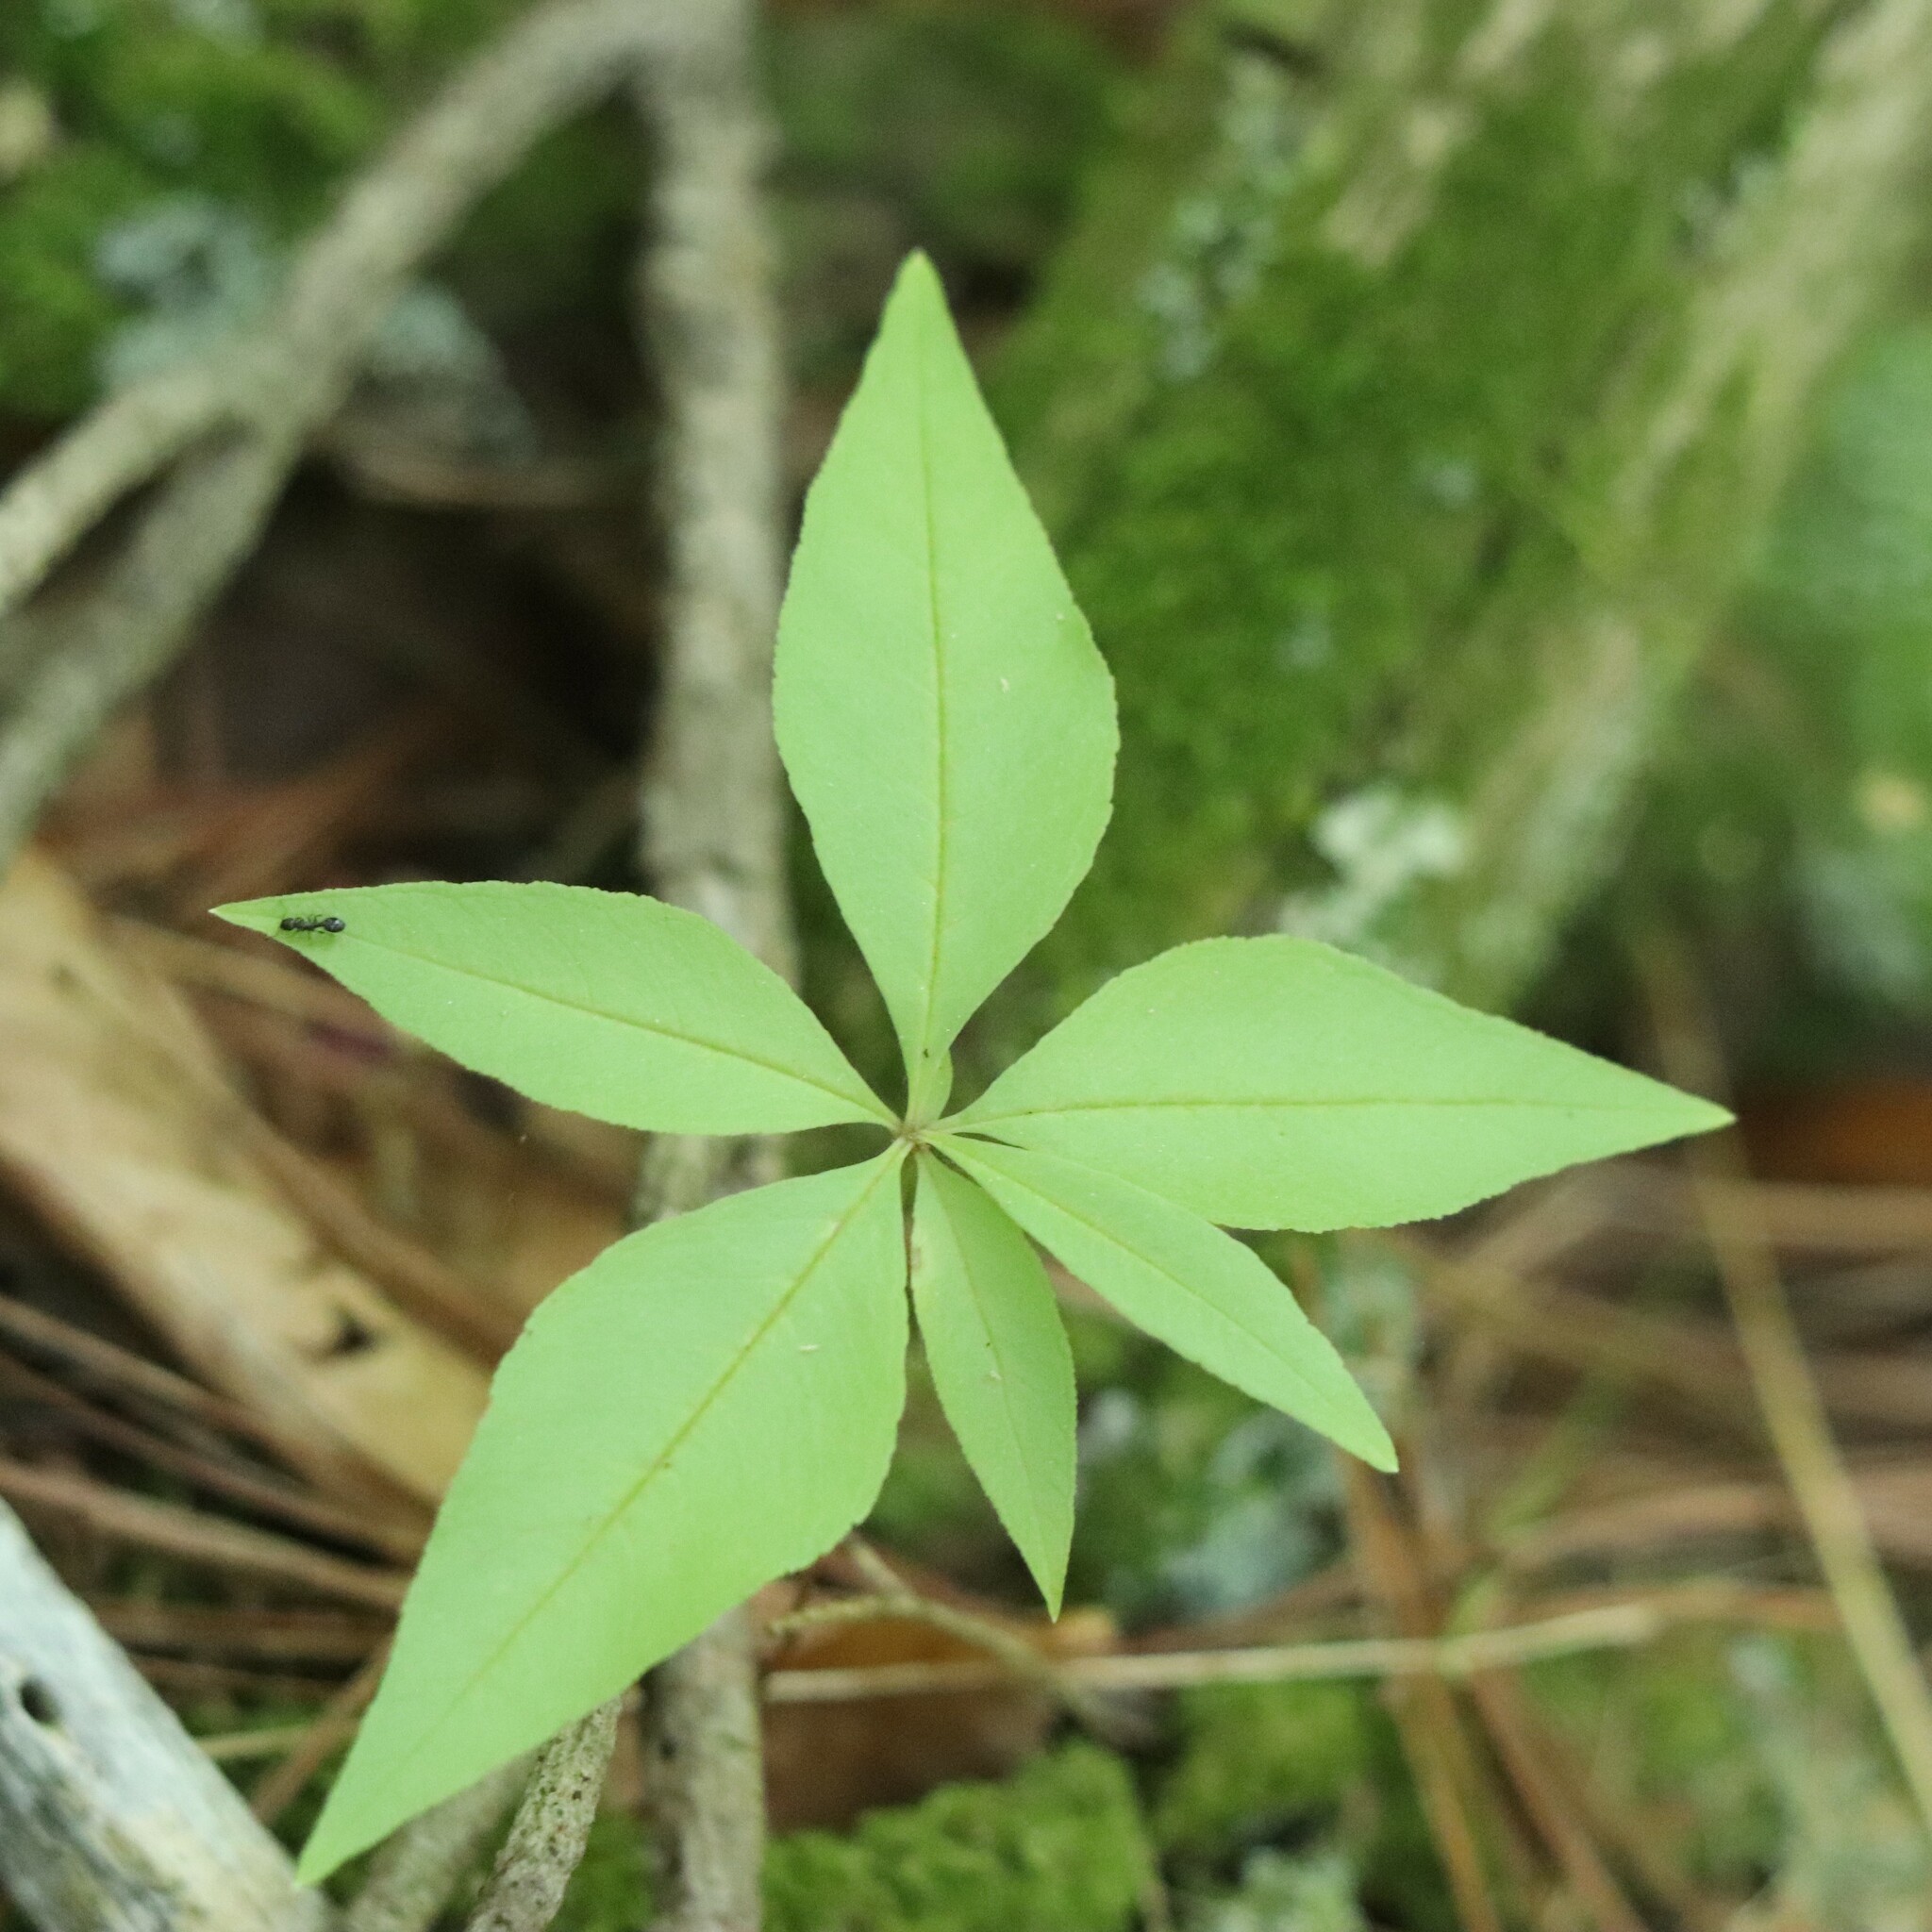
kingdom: Plantae
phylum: Tracheophyta
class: Magnoliopsida
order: Ericales
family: Primulaceae
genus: Lysimachia
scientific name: Lysimachia borealis
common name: American starflower
